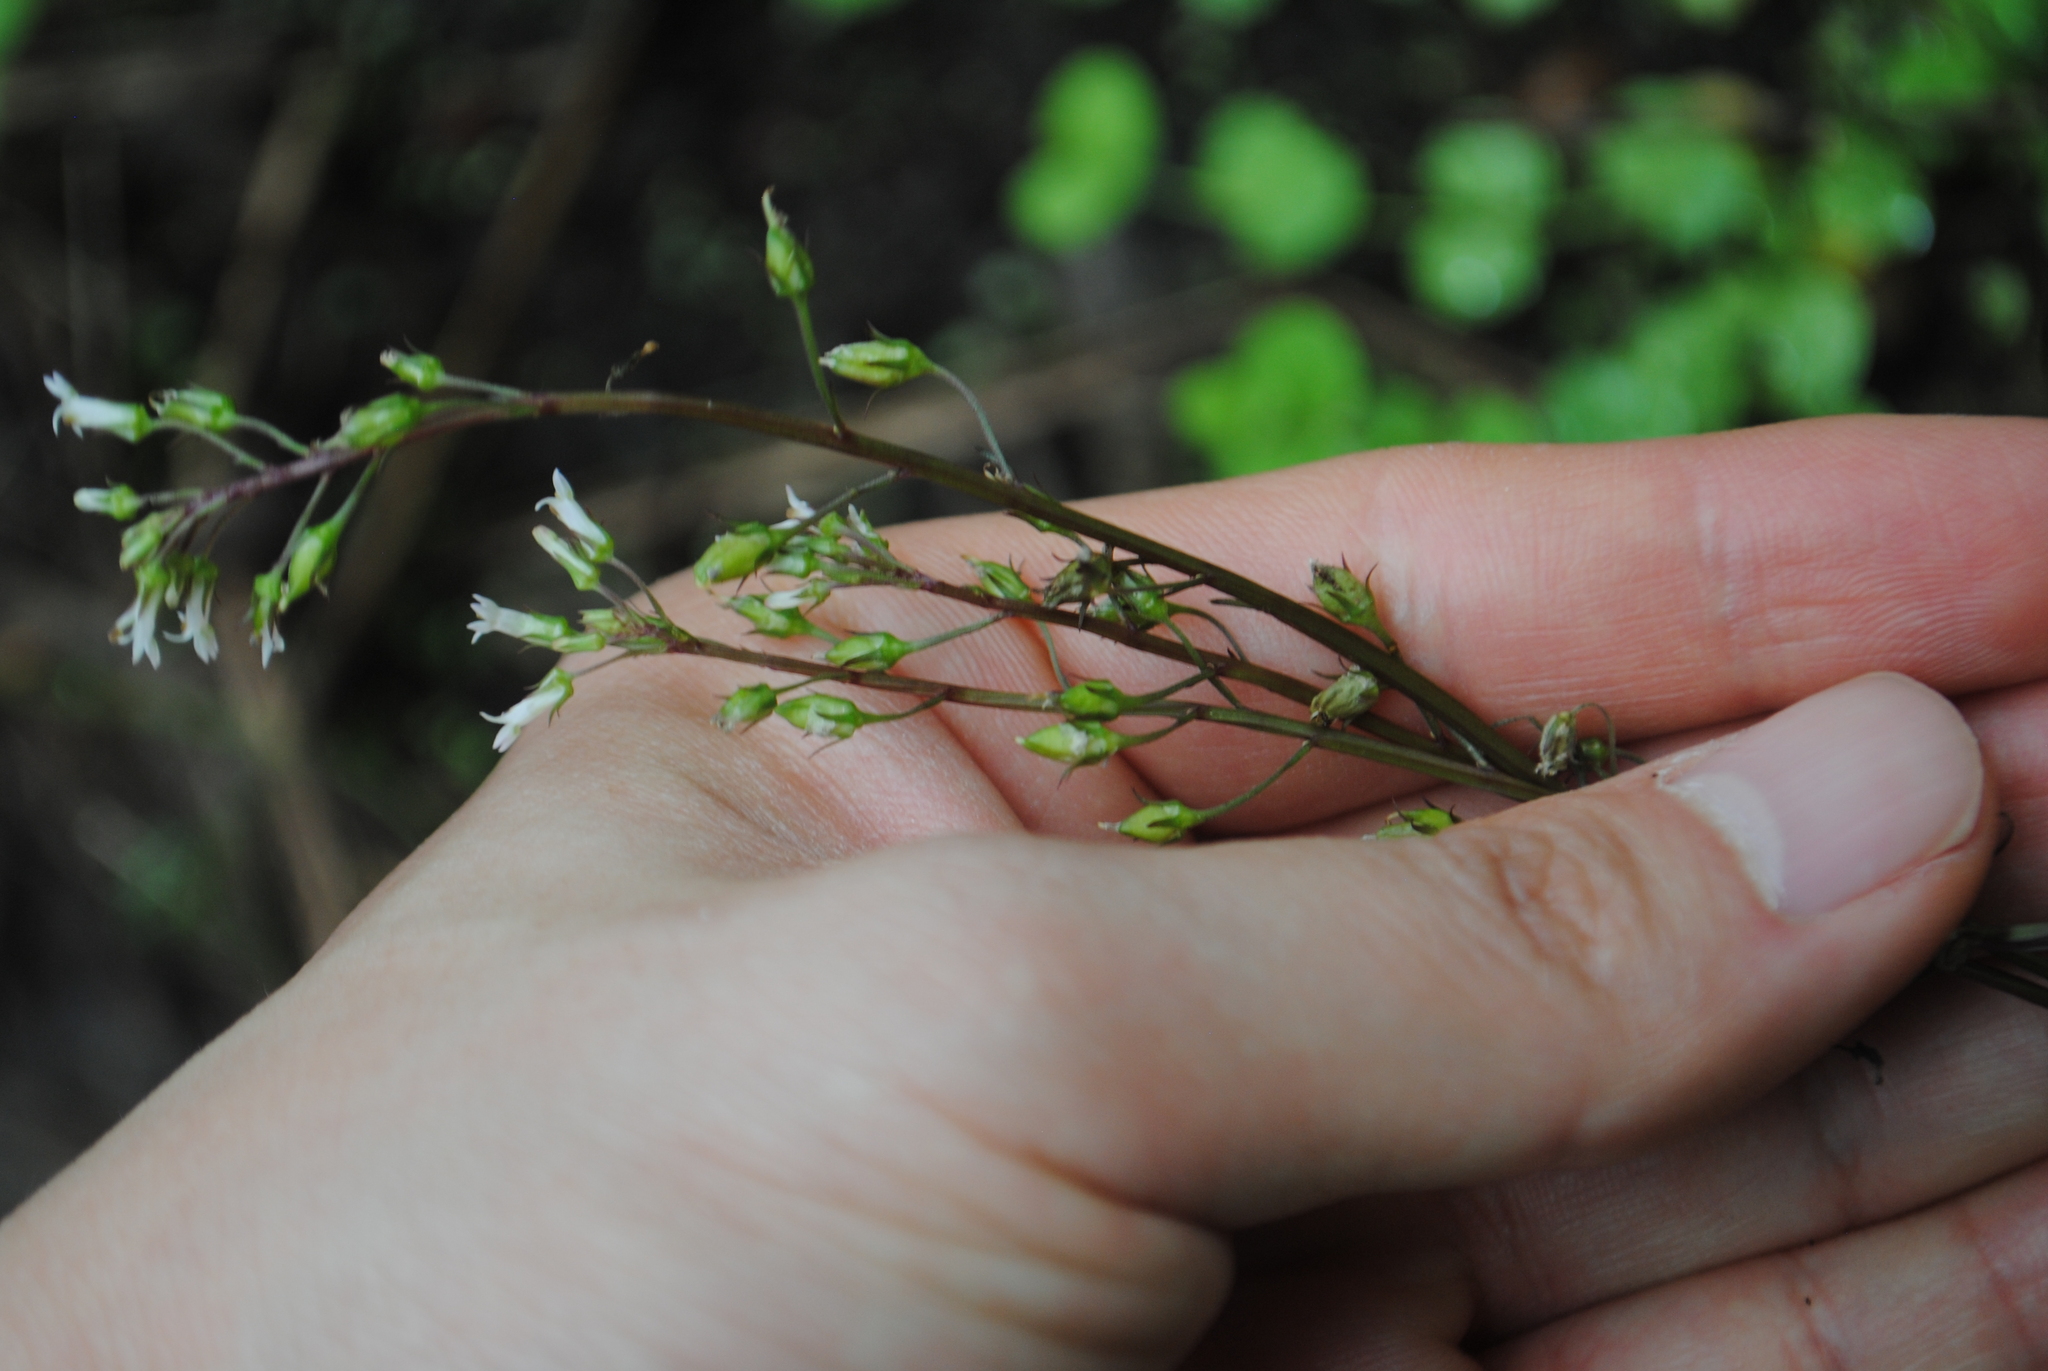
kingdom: Plantae
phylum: Tracheophyta
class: Magnoliopsida
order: Asterales
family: Campanulaceae
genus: Lobelia
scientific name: Lobelia xalapensis
